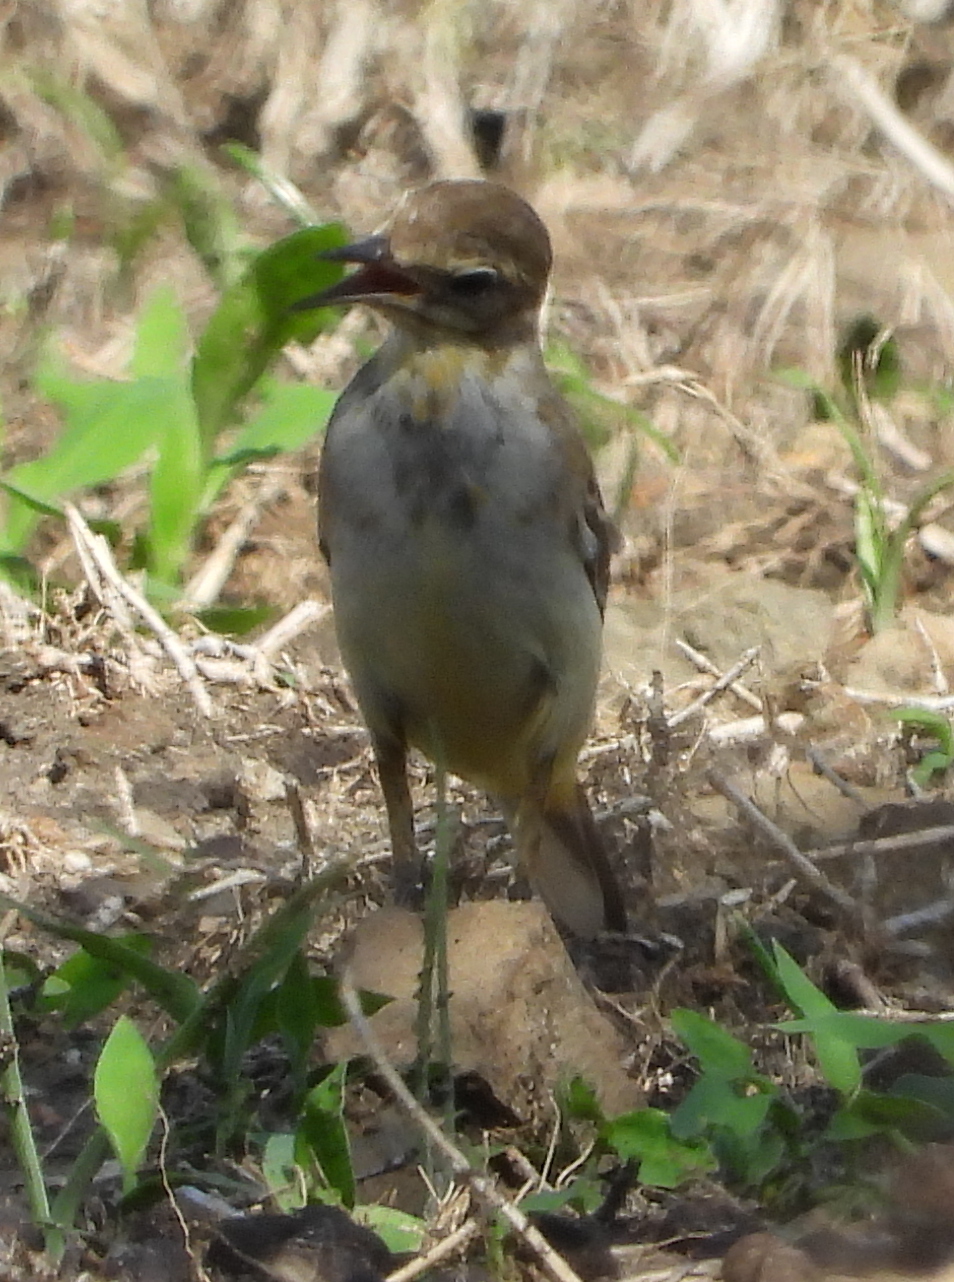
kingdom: Animalia
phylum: Chordata
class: Aves
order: Passeriformes
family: Motacillidae
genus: Motacilla
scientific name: Motacilla flava
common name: Western yellow wagtail
